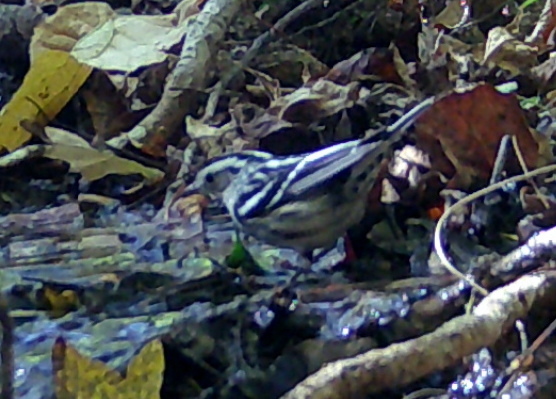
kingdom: Animalia
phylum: Chordata
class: Aves
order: Passeriformes
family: Parulidae
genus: Mniotilta
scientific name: Mniotilta varia
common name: Black-and-white warbler
